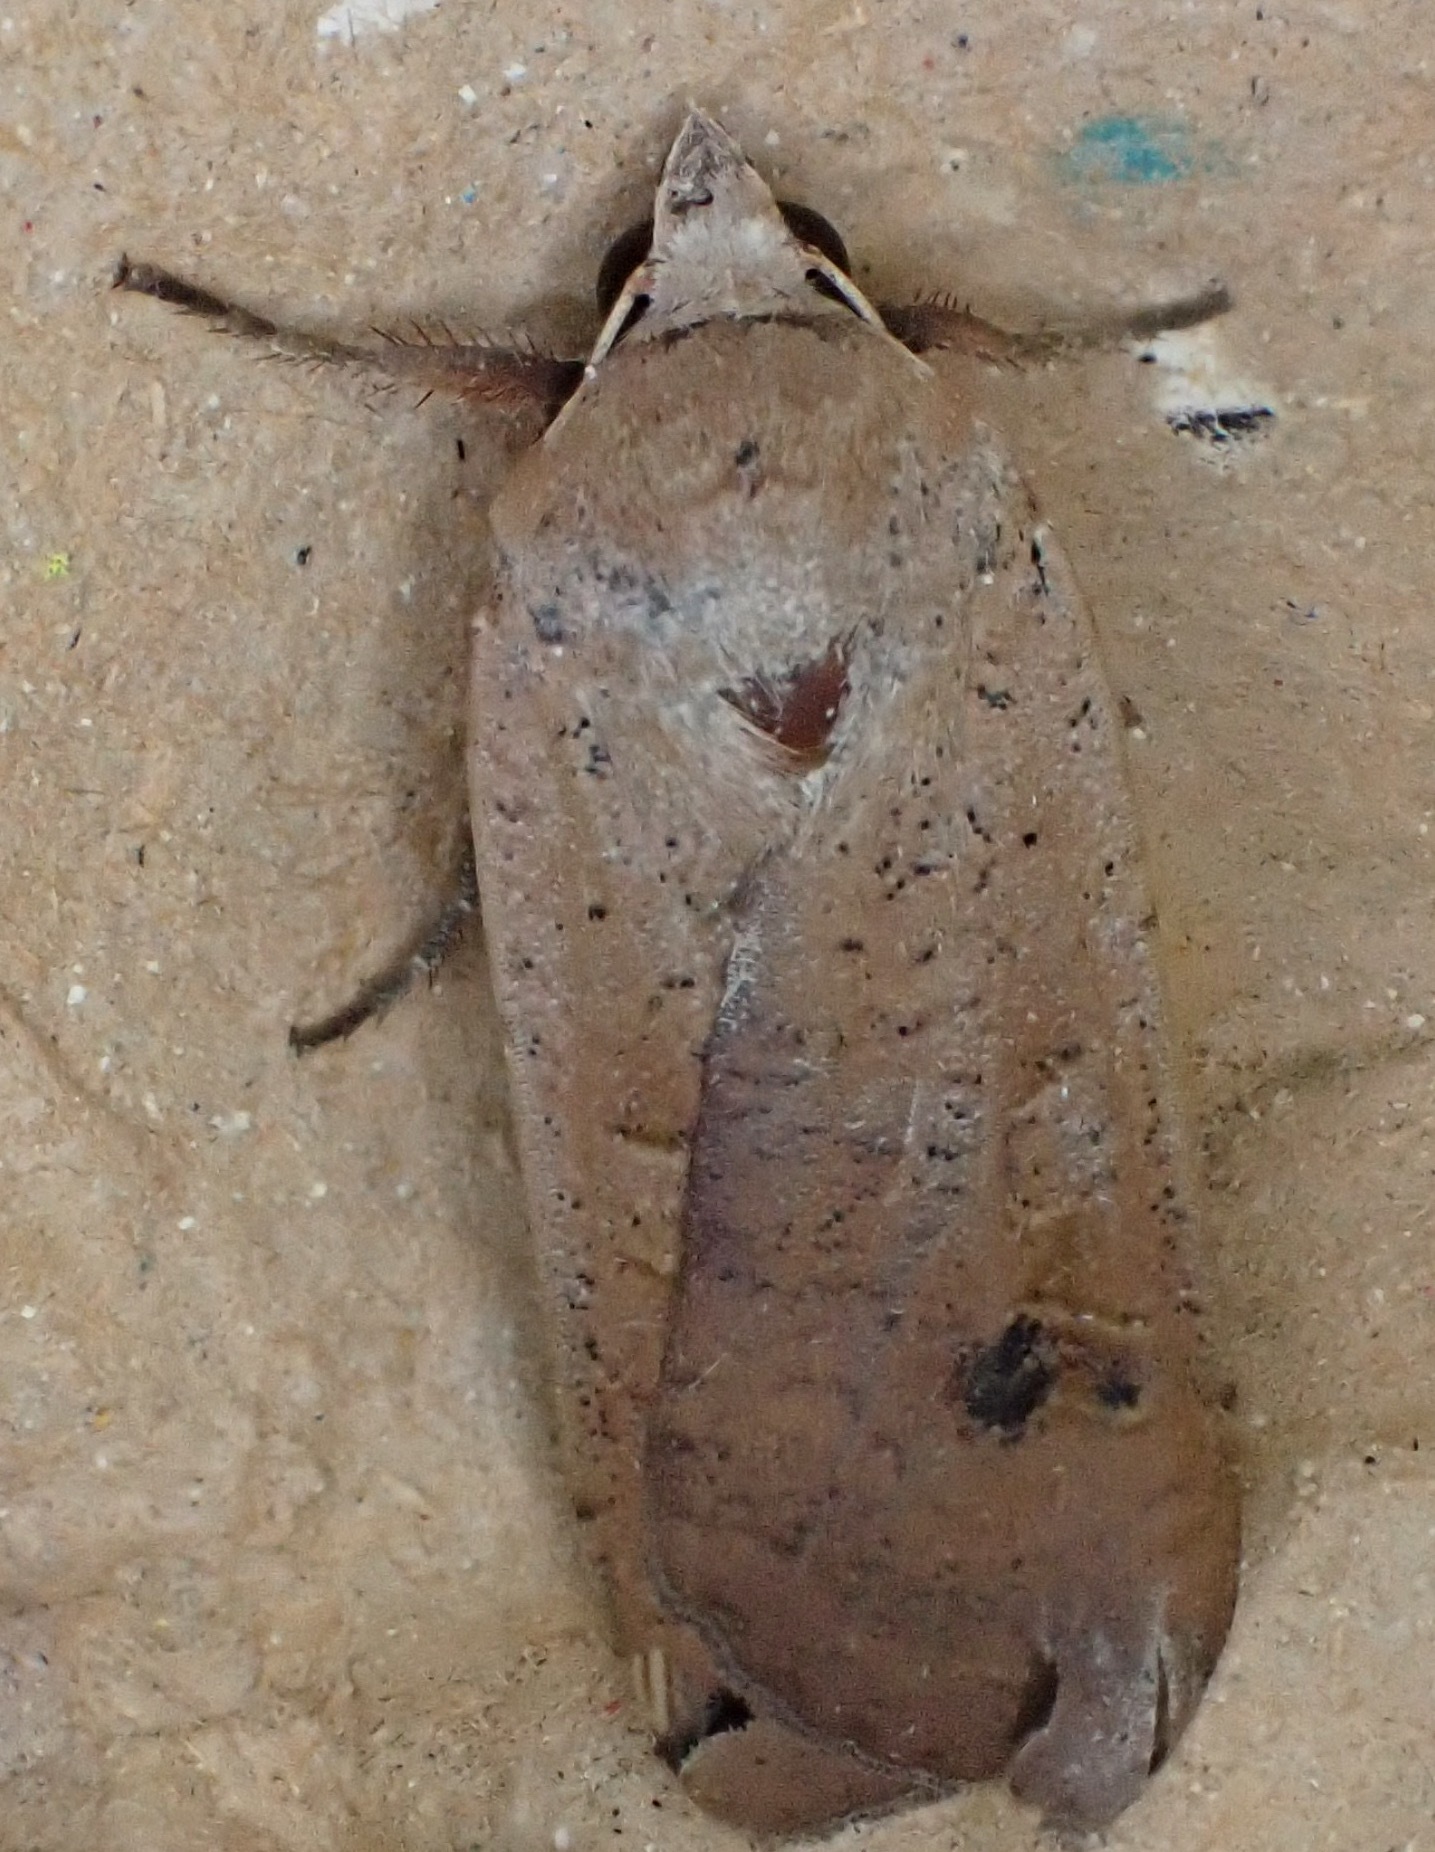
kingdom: Animalia
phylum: Arthropoda
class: Insecta
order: Lepidoptera
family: Noctuidae
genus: Noctua
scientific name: Noctua pronuba
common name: Large yellow underwing
